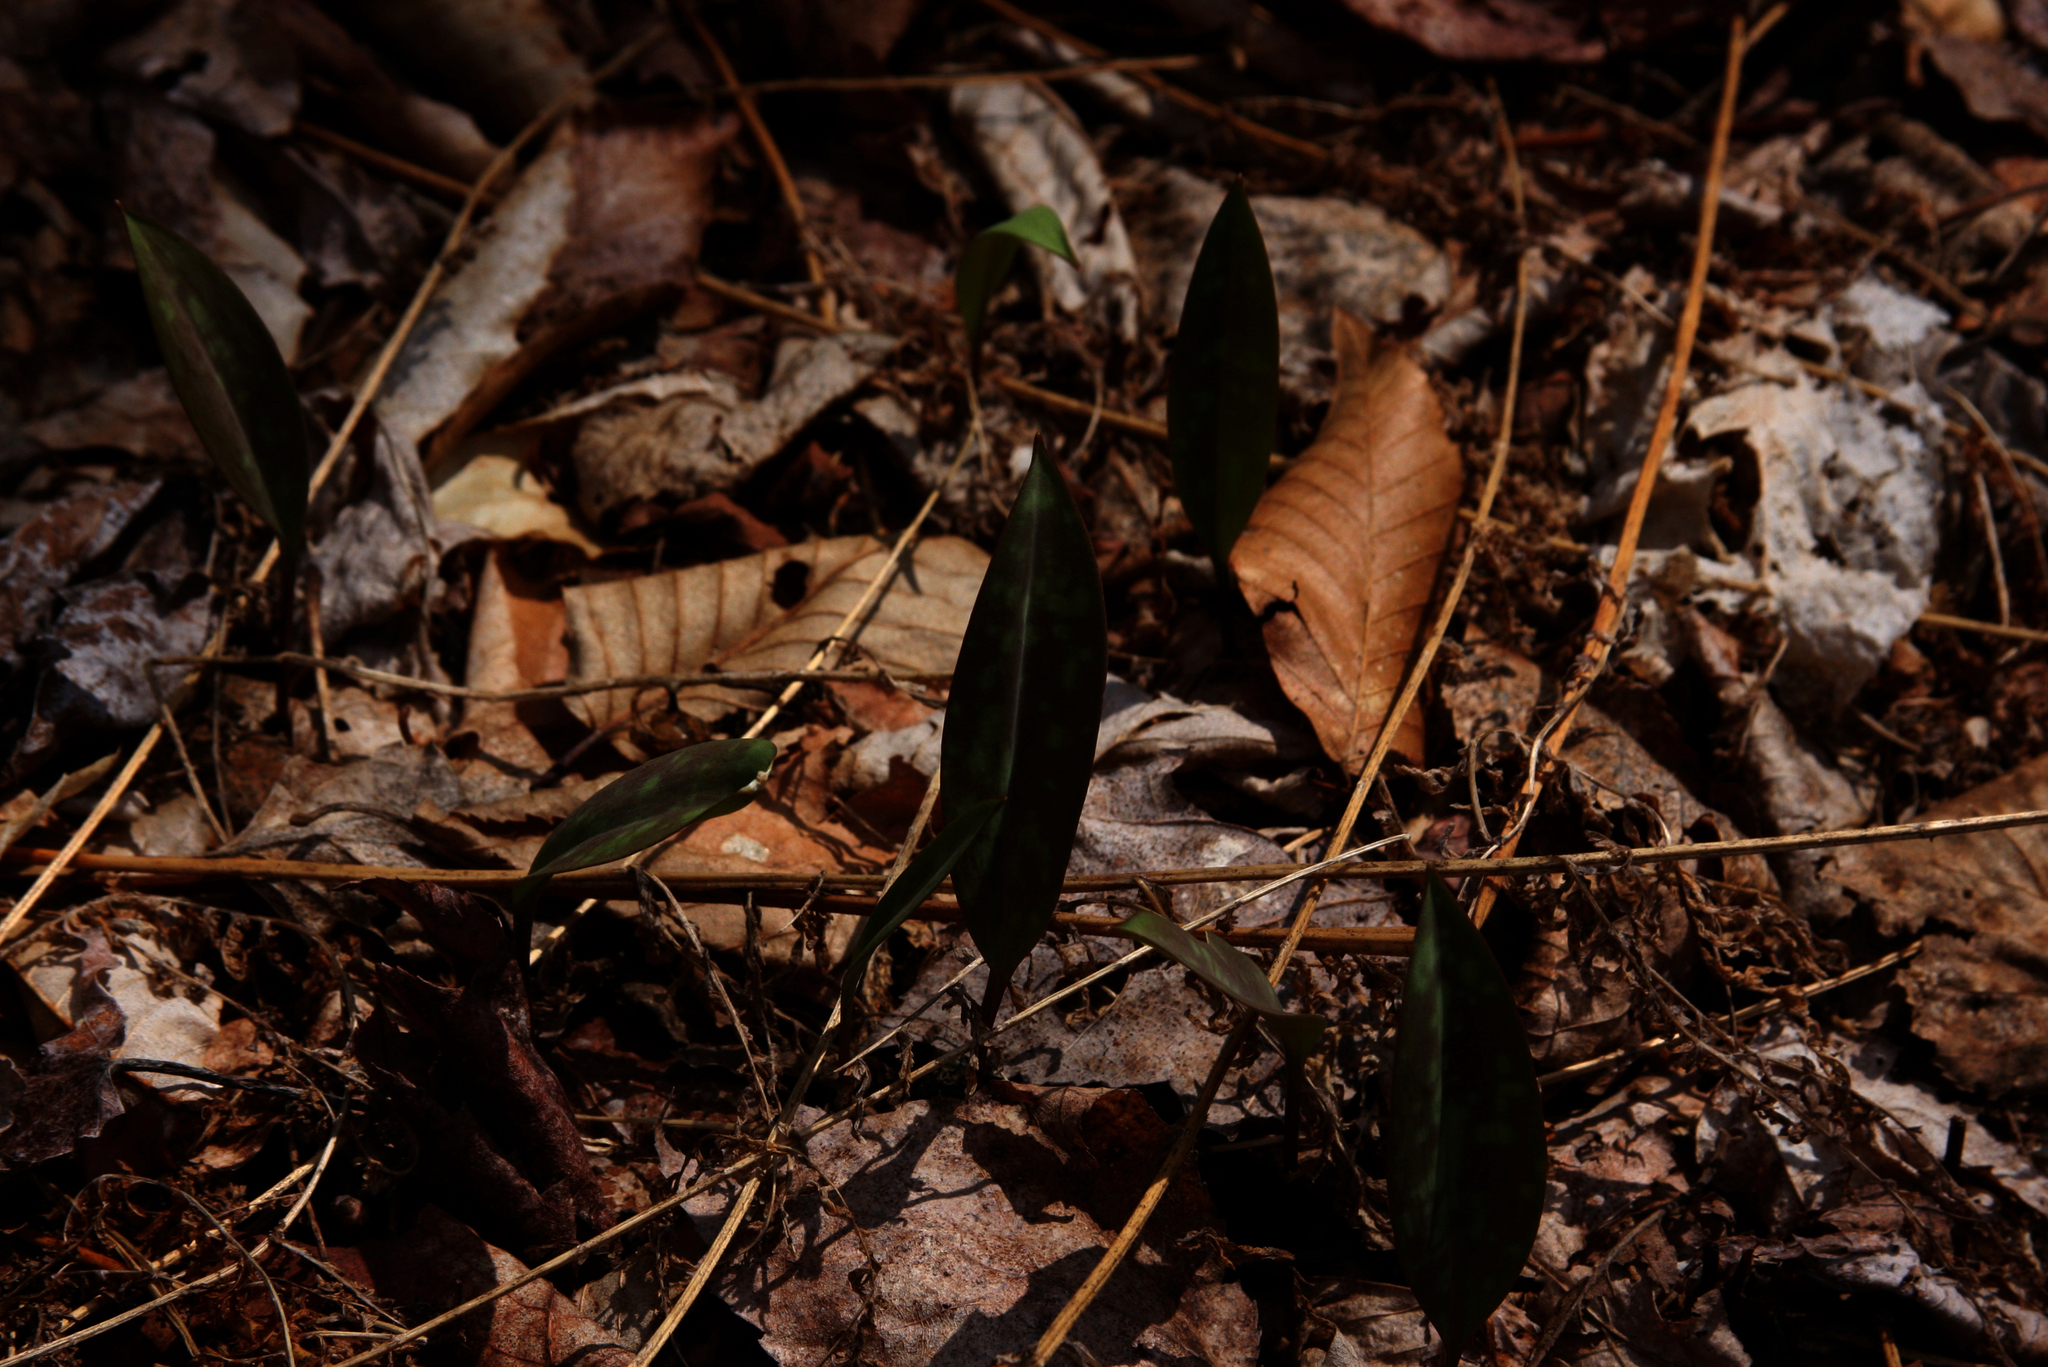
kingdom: Plantae
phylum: Tracheophyta
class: Liliopsida
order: Liliales
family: Liliaceae
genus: Erythronium
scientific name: Erythronium americanum
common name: Yellow adder's-tongue
